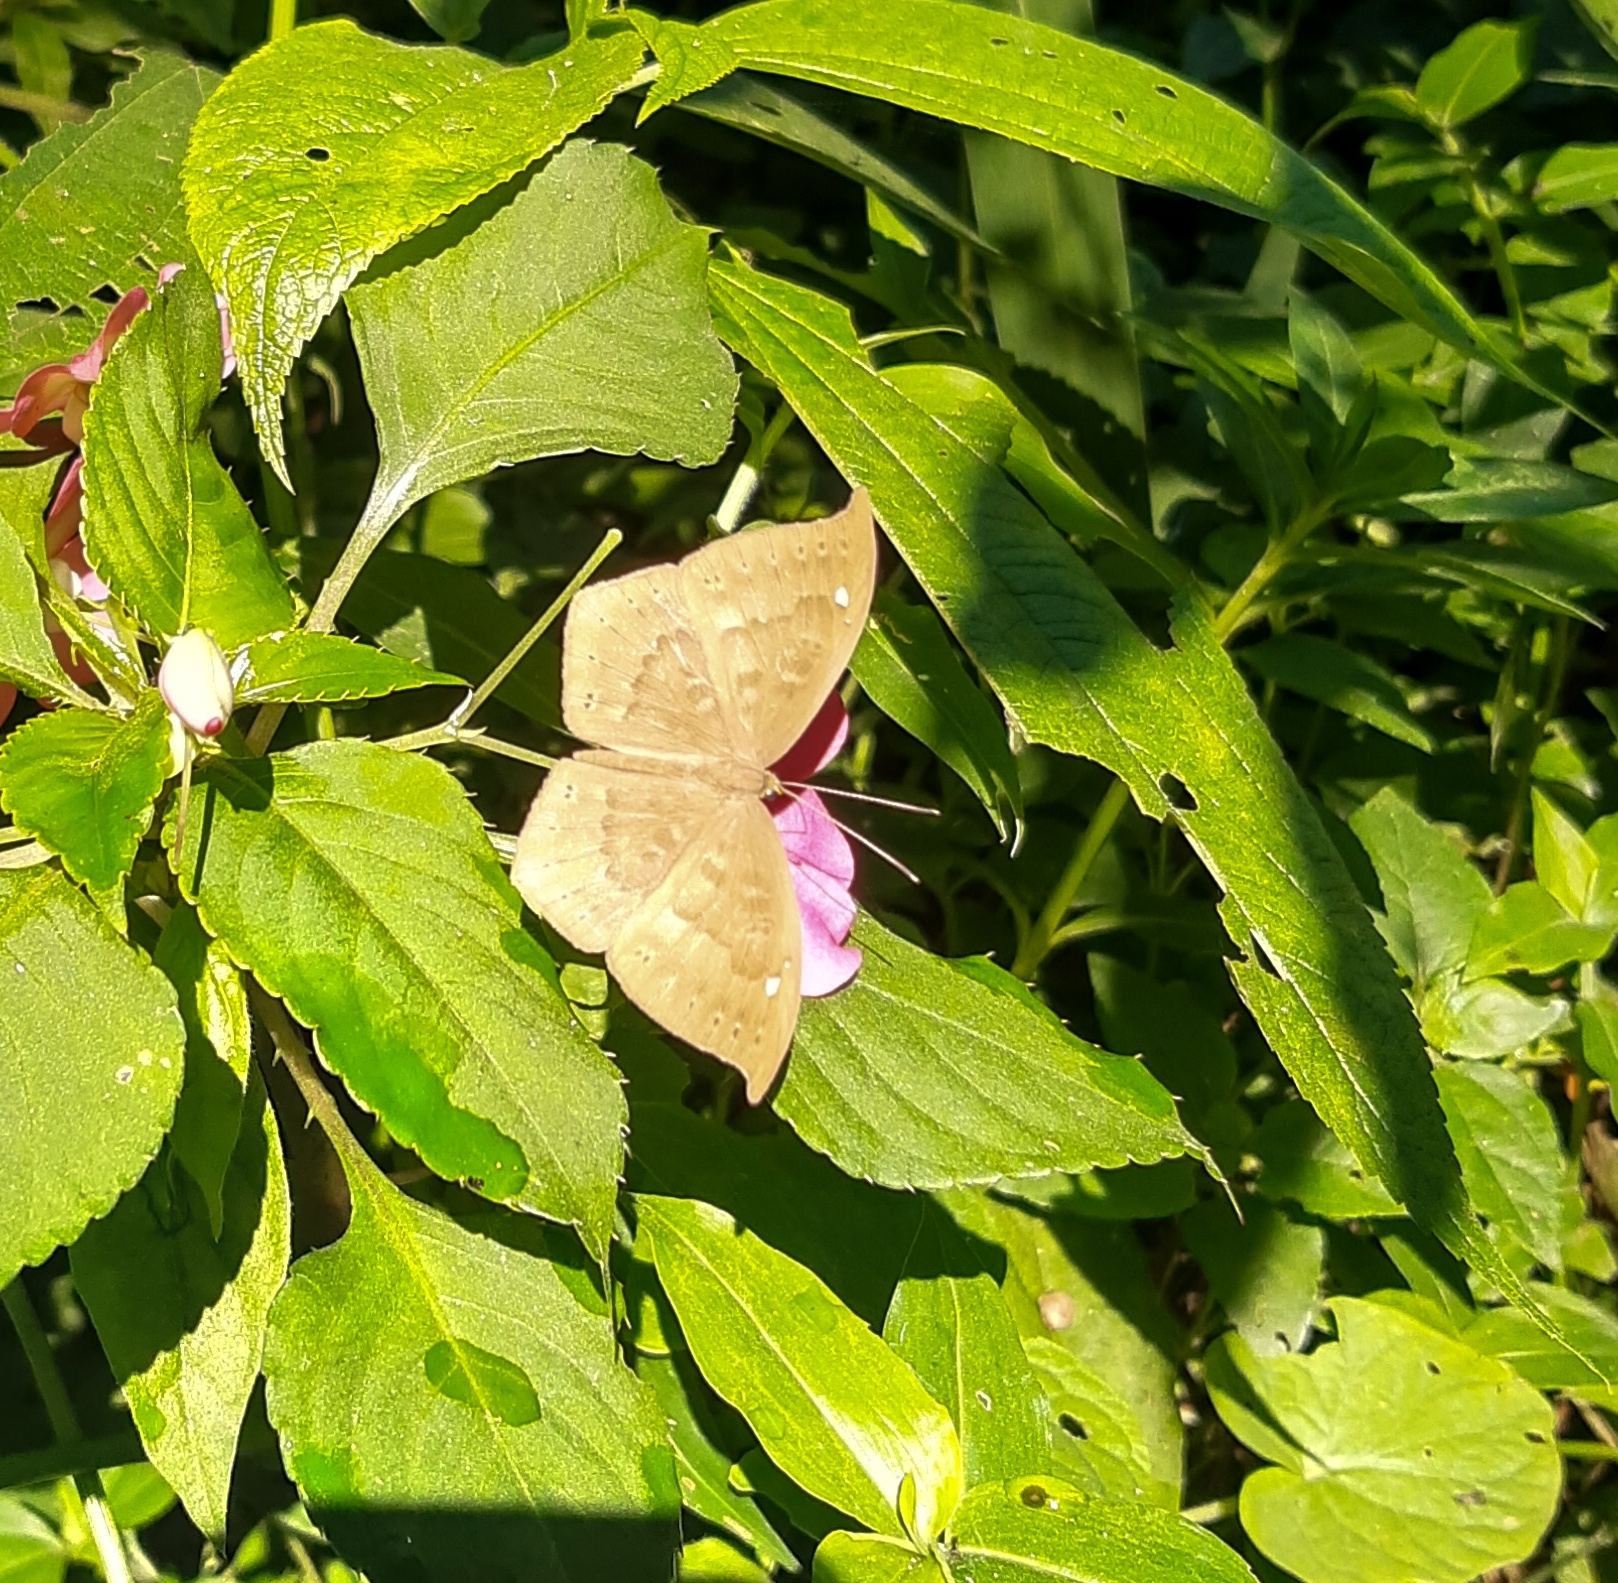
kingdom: Animalia
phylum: Cnidaria
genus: Eurybia
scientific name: Eurybia pergaea
